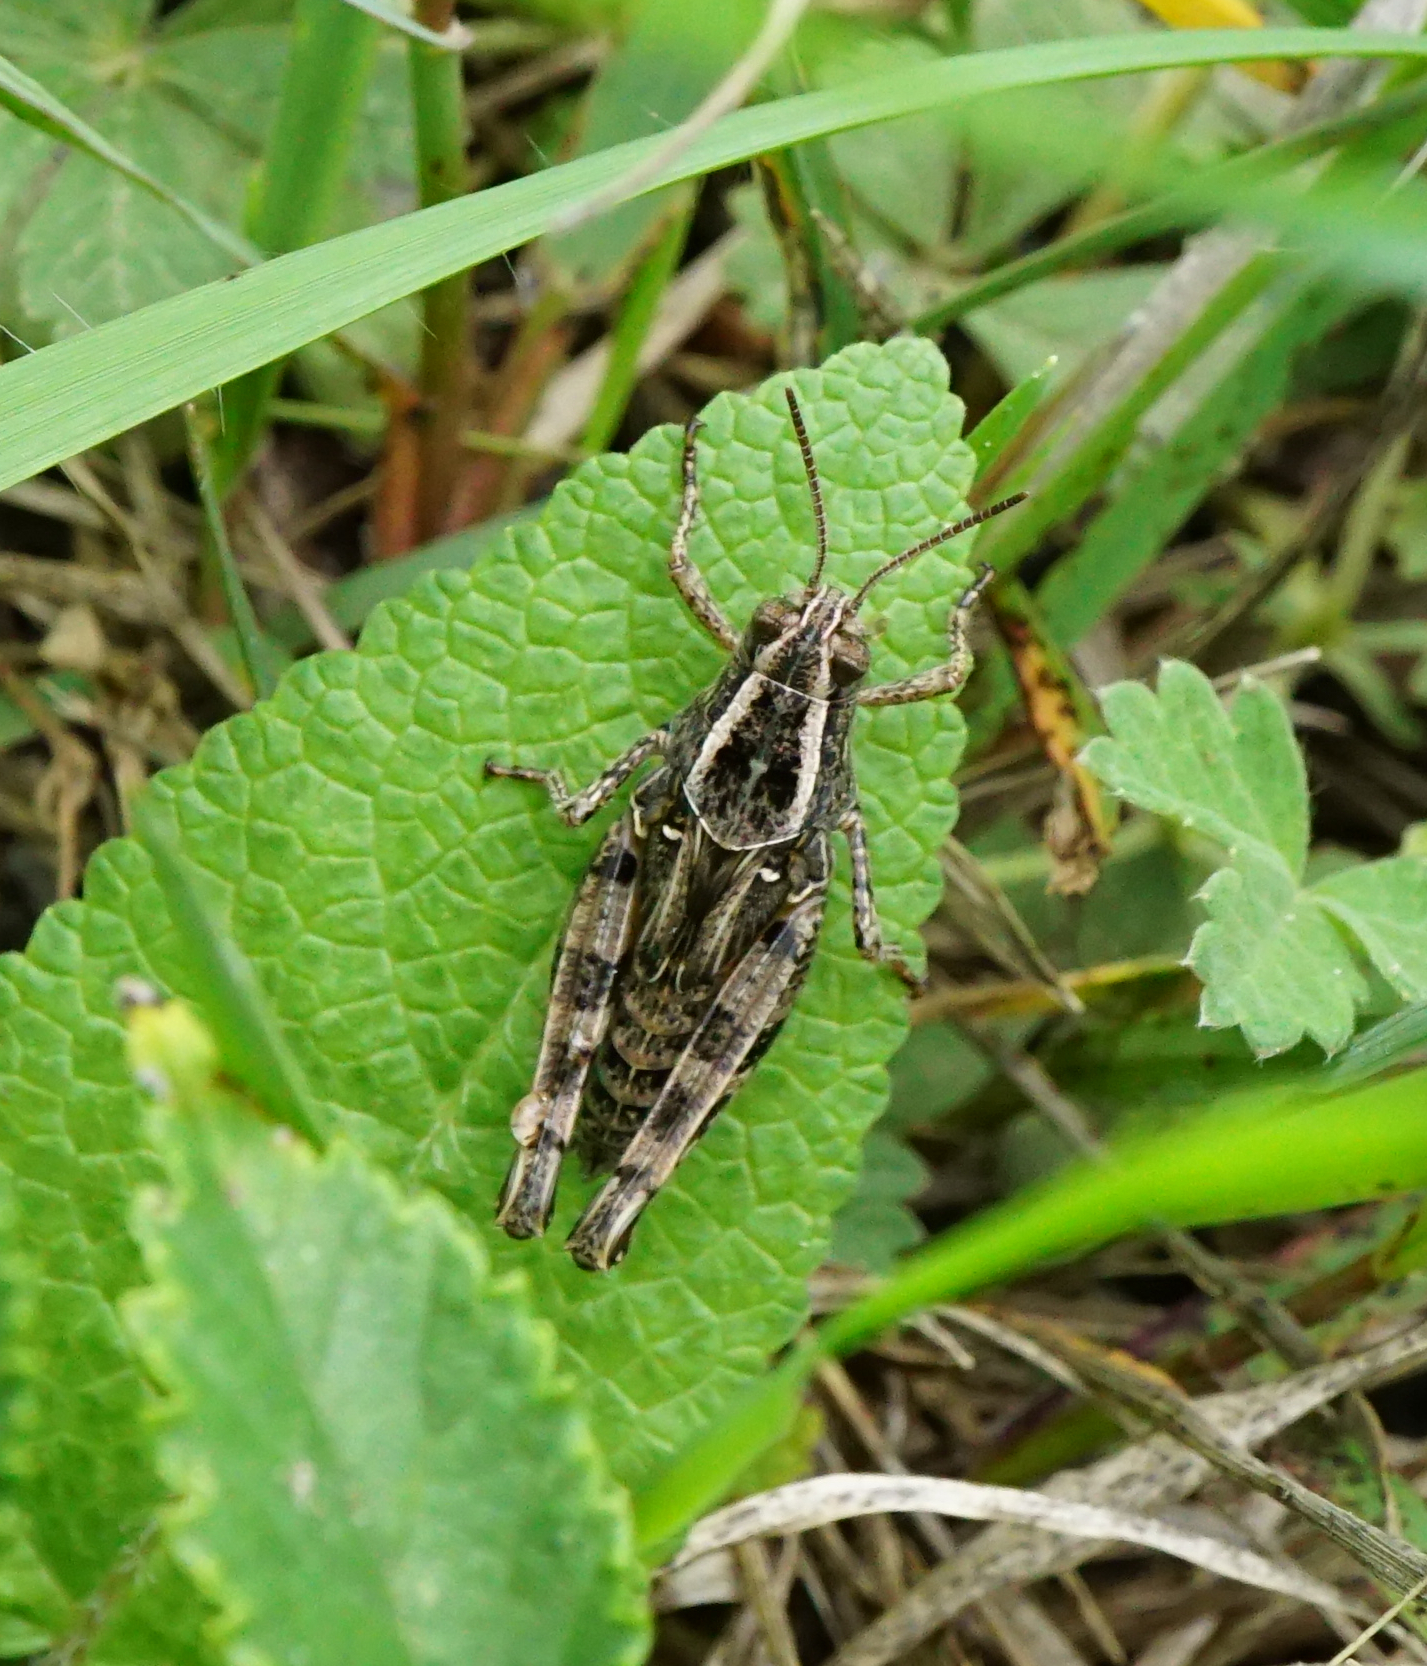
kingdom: Animalia
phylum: Arthropoda
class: Insecta
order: Orthoptera
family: Acrididae
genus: Calliptamus
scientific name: Calliptamus italicus
